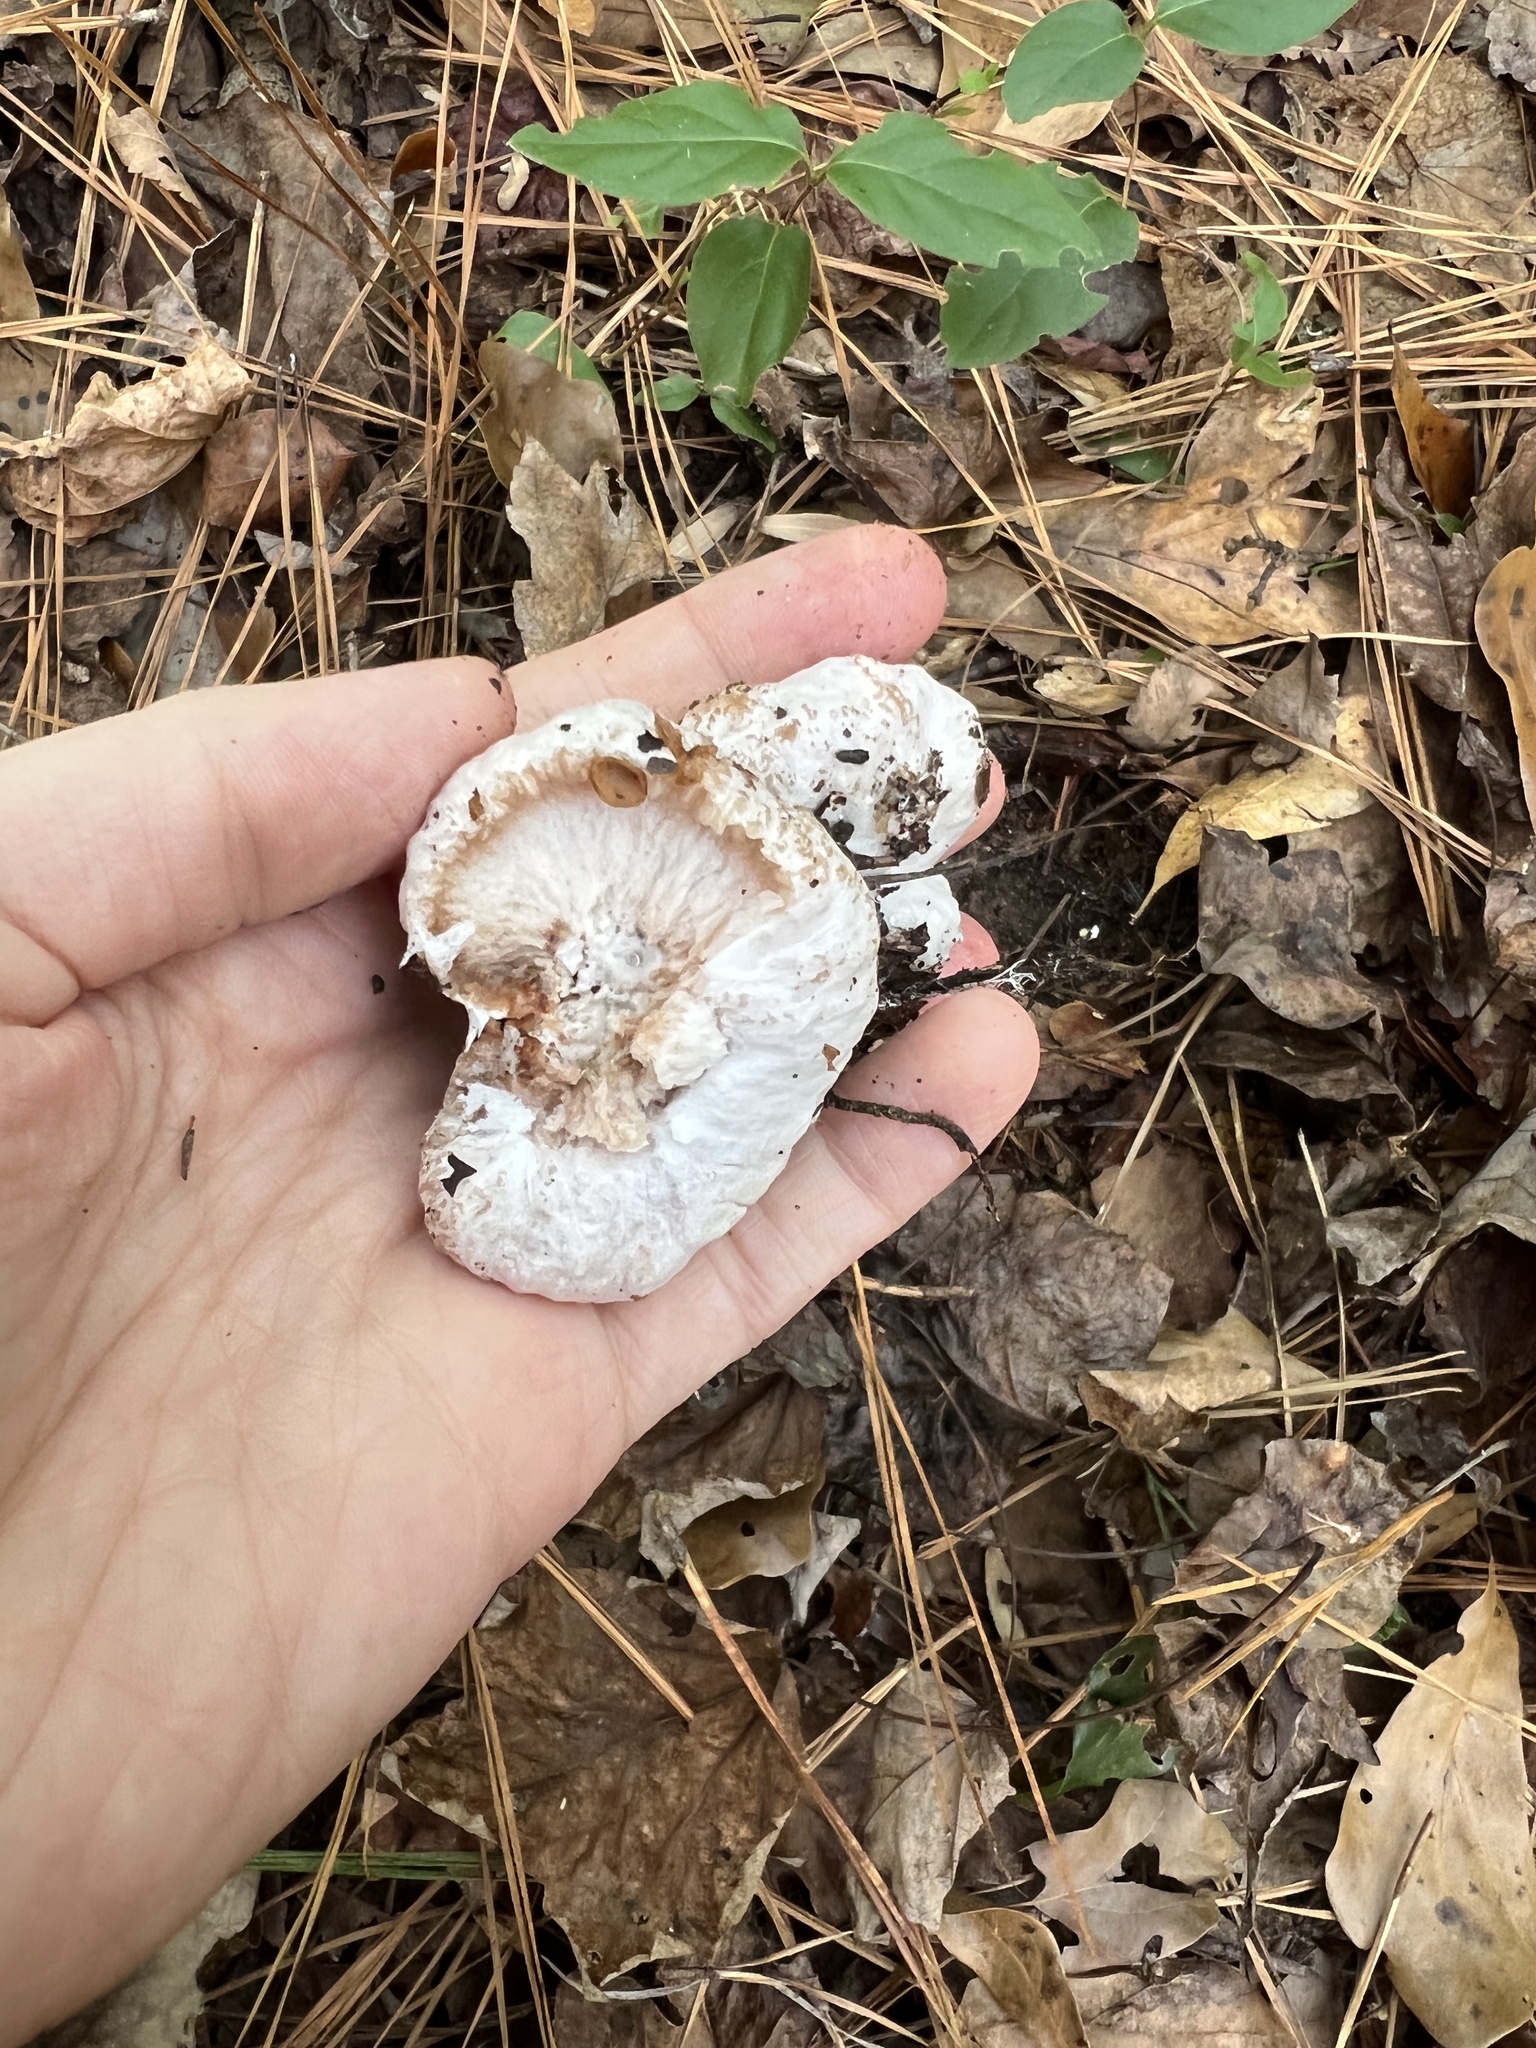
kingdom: Fungi
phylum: Basidiomycota
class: Agaricomycetes
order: Agaricales
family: Entolomataceae
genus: Entoloma
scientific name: Entoloma abortivum
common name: Aborted entoloma
